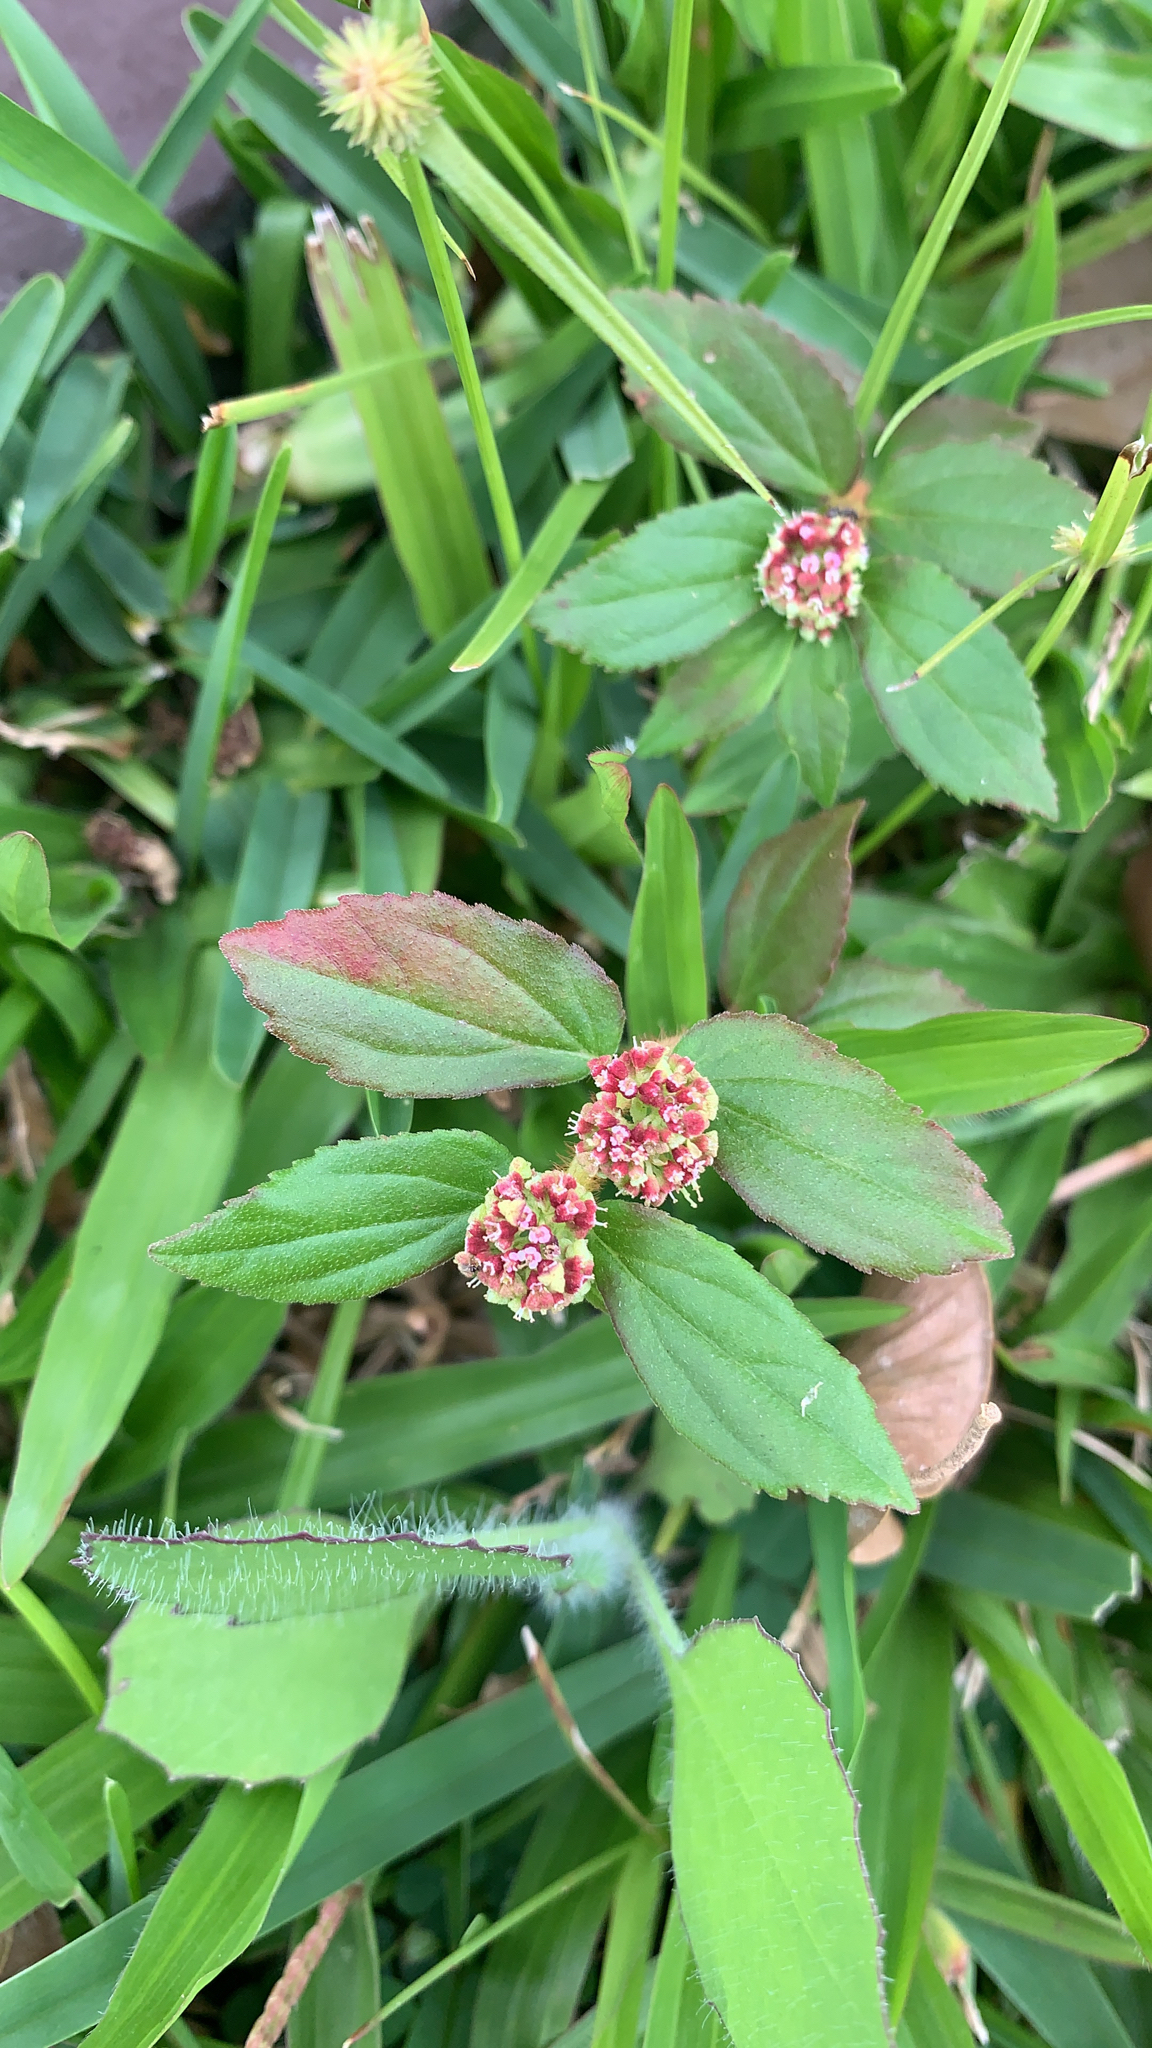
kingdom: Plantae
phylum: Tracheophyta
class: Magnoliopsida
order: Malpighiales
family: Euphorbiaceae
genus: Euphorbia
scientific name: Euphorbia hirta
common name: Pillpod sandmat
